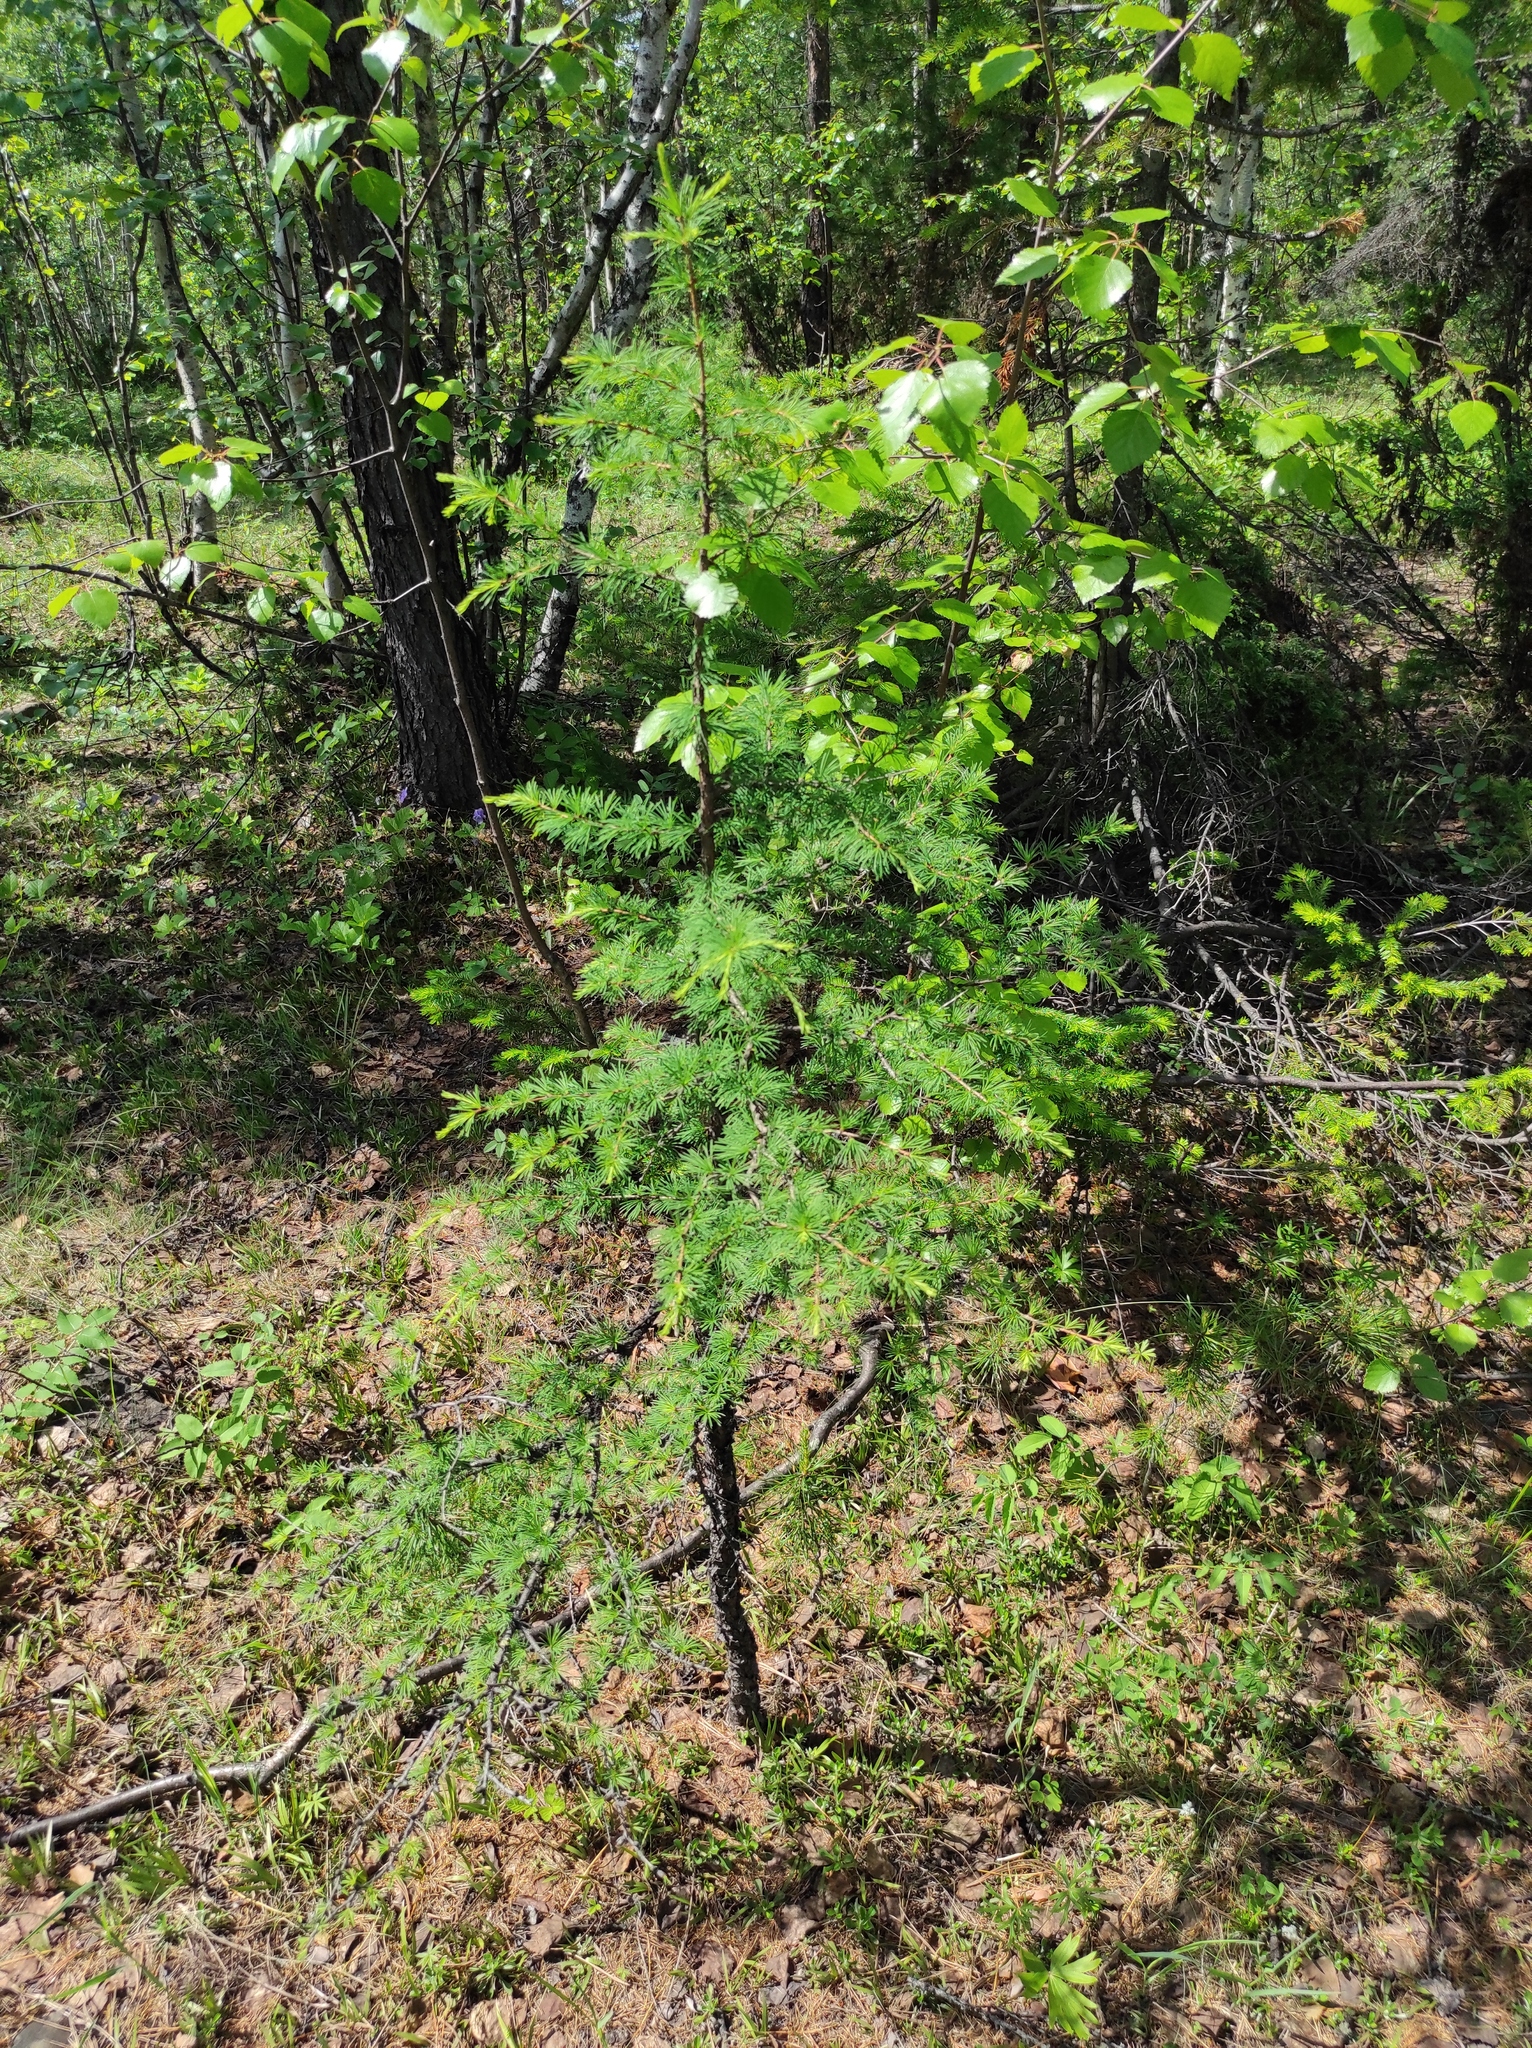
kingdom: Plantae
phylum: Tracheophyta
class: Pinopsida
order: Pinales
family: Pinaceae
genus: Larix
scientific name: Larix gmelinii
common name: Dahurian larch
